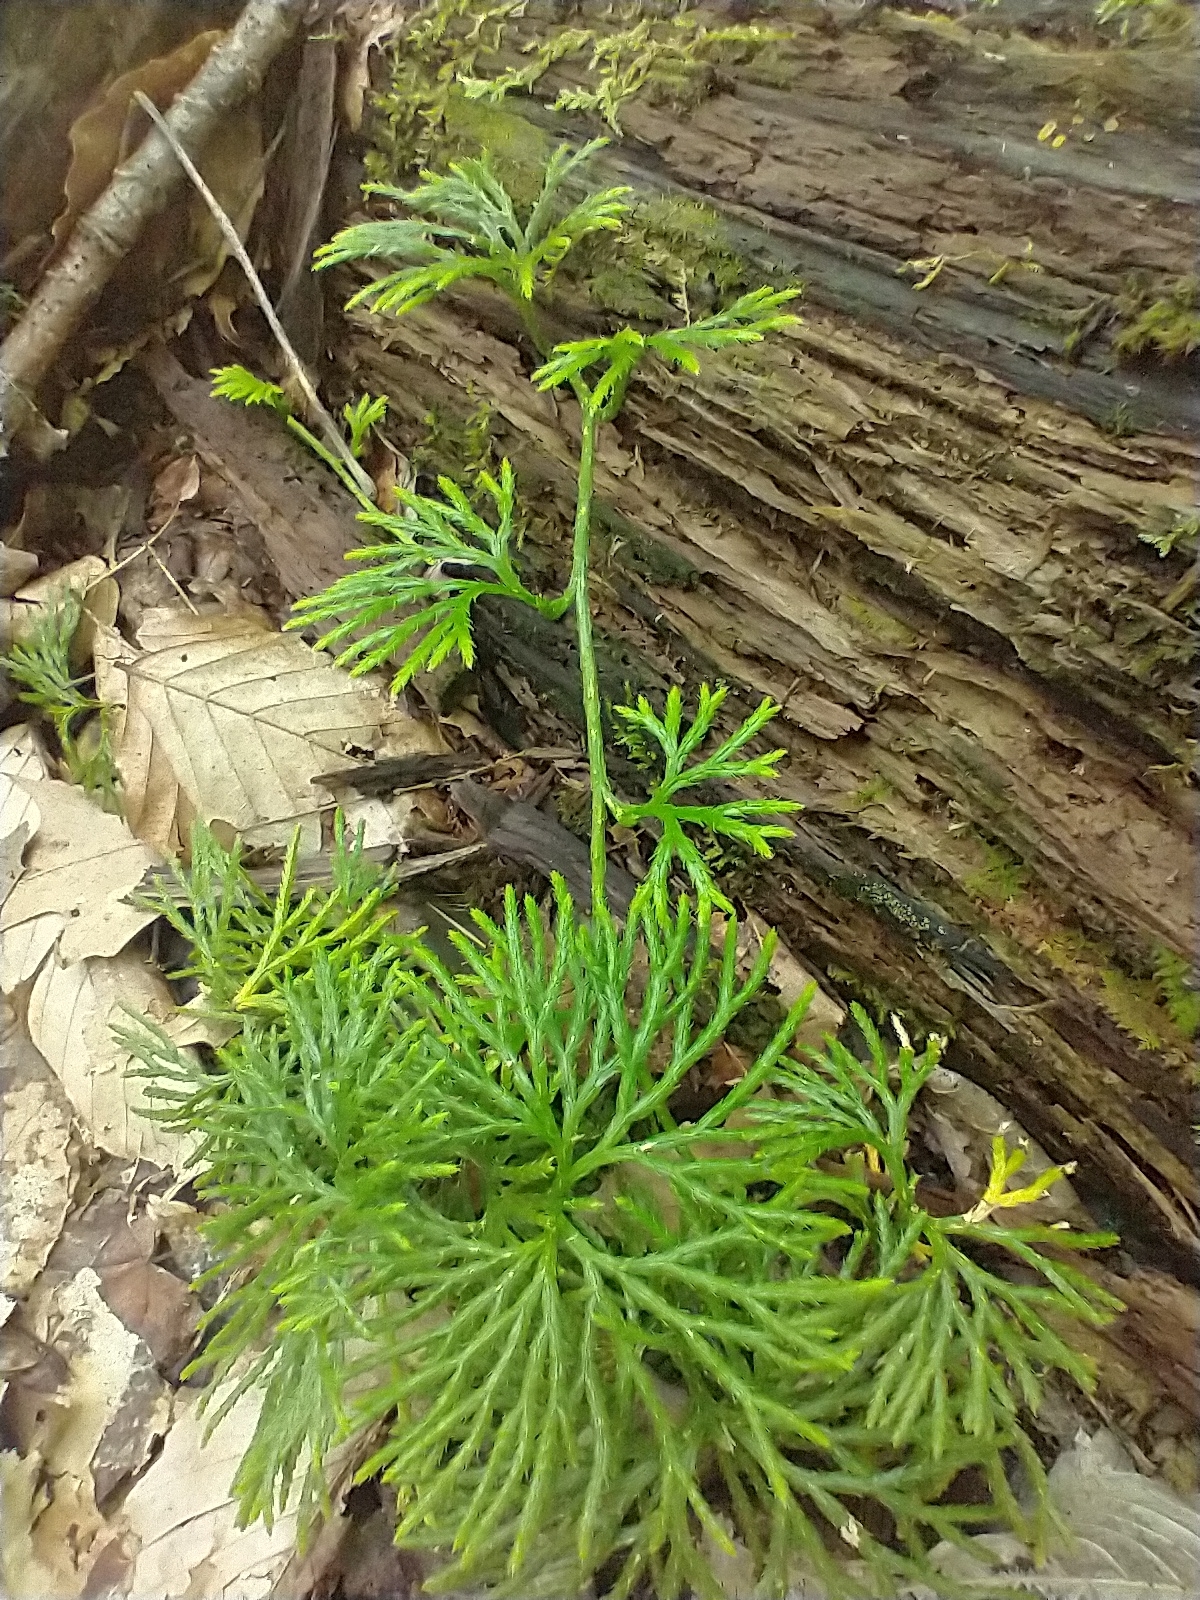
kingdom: Plantae
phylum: Tracheophyta
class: Lycopodiopsida
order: Lycopodiales
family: Lycopodiaceae
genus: Diphasiastrum
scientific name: Diphasiastrum digitatum
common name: Southern running-pine
